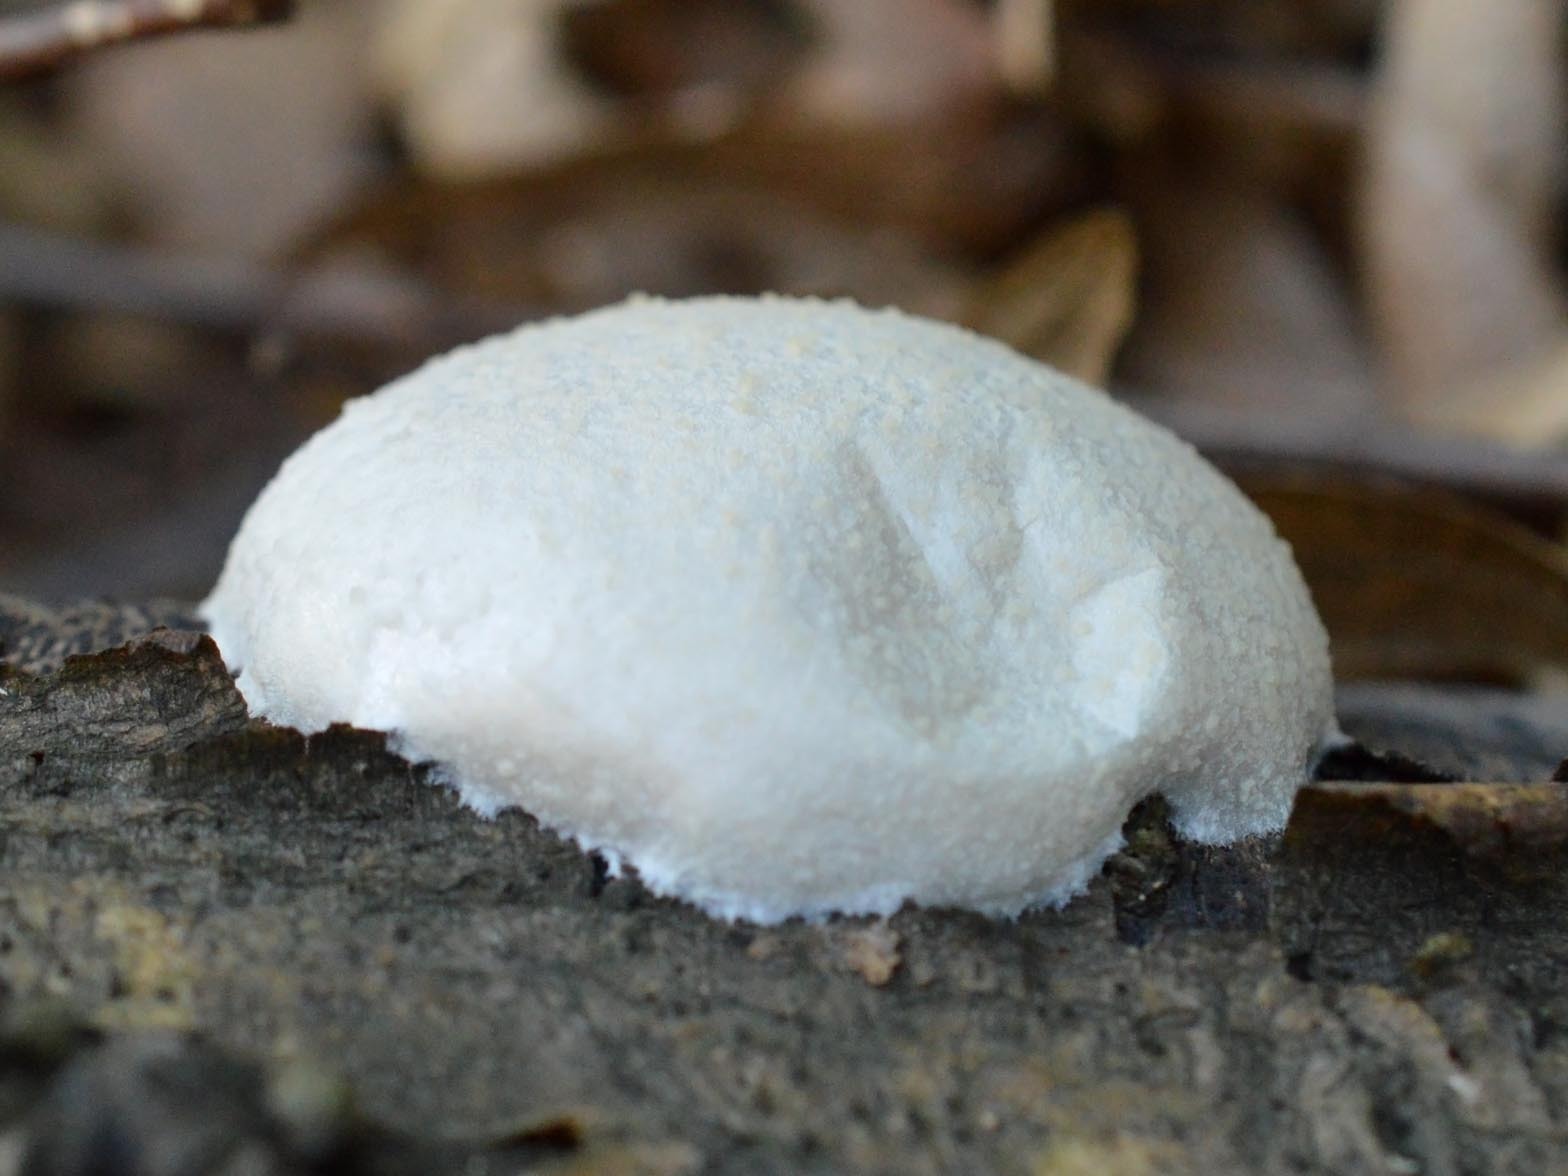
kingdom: Protozoa
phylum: Mycetozoa
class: Myxomycetes
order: Cribrariales
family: Tubiferaceae
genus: Reticularia
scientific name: Reticularia lycoperdon
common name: False puffball
